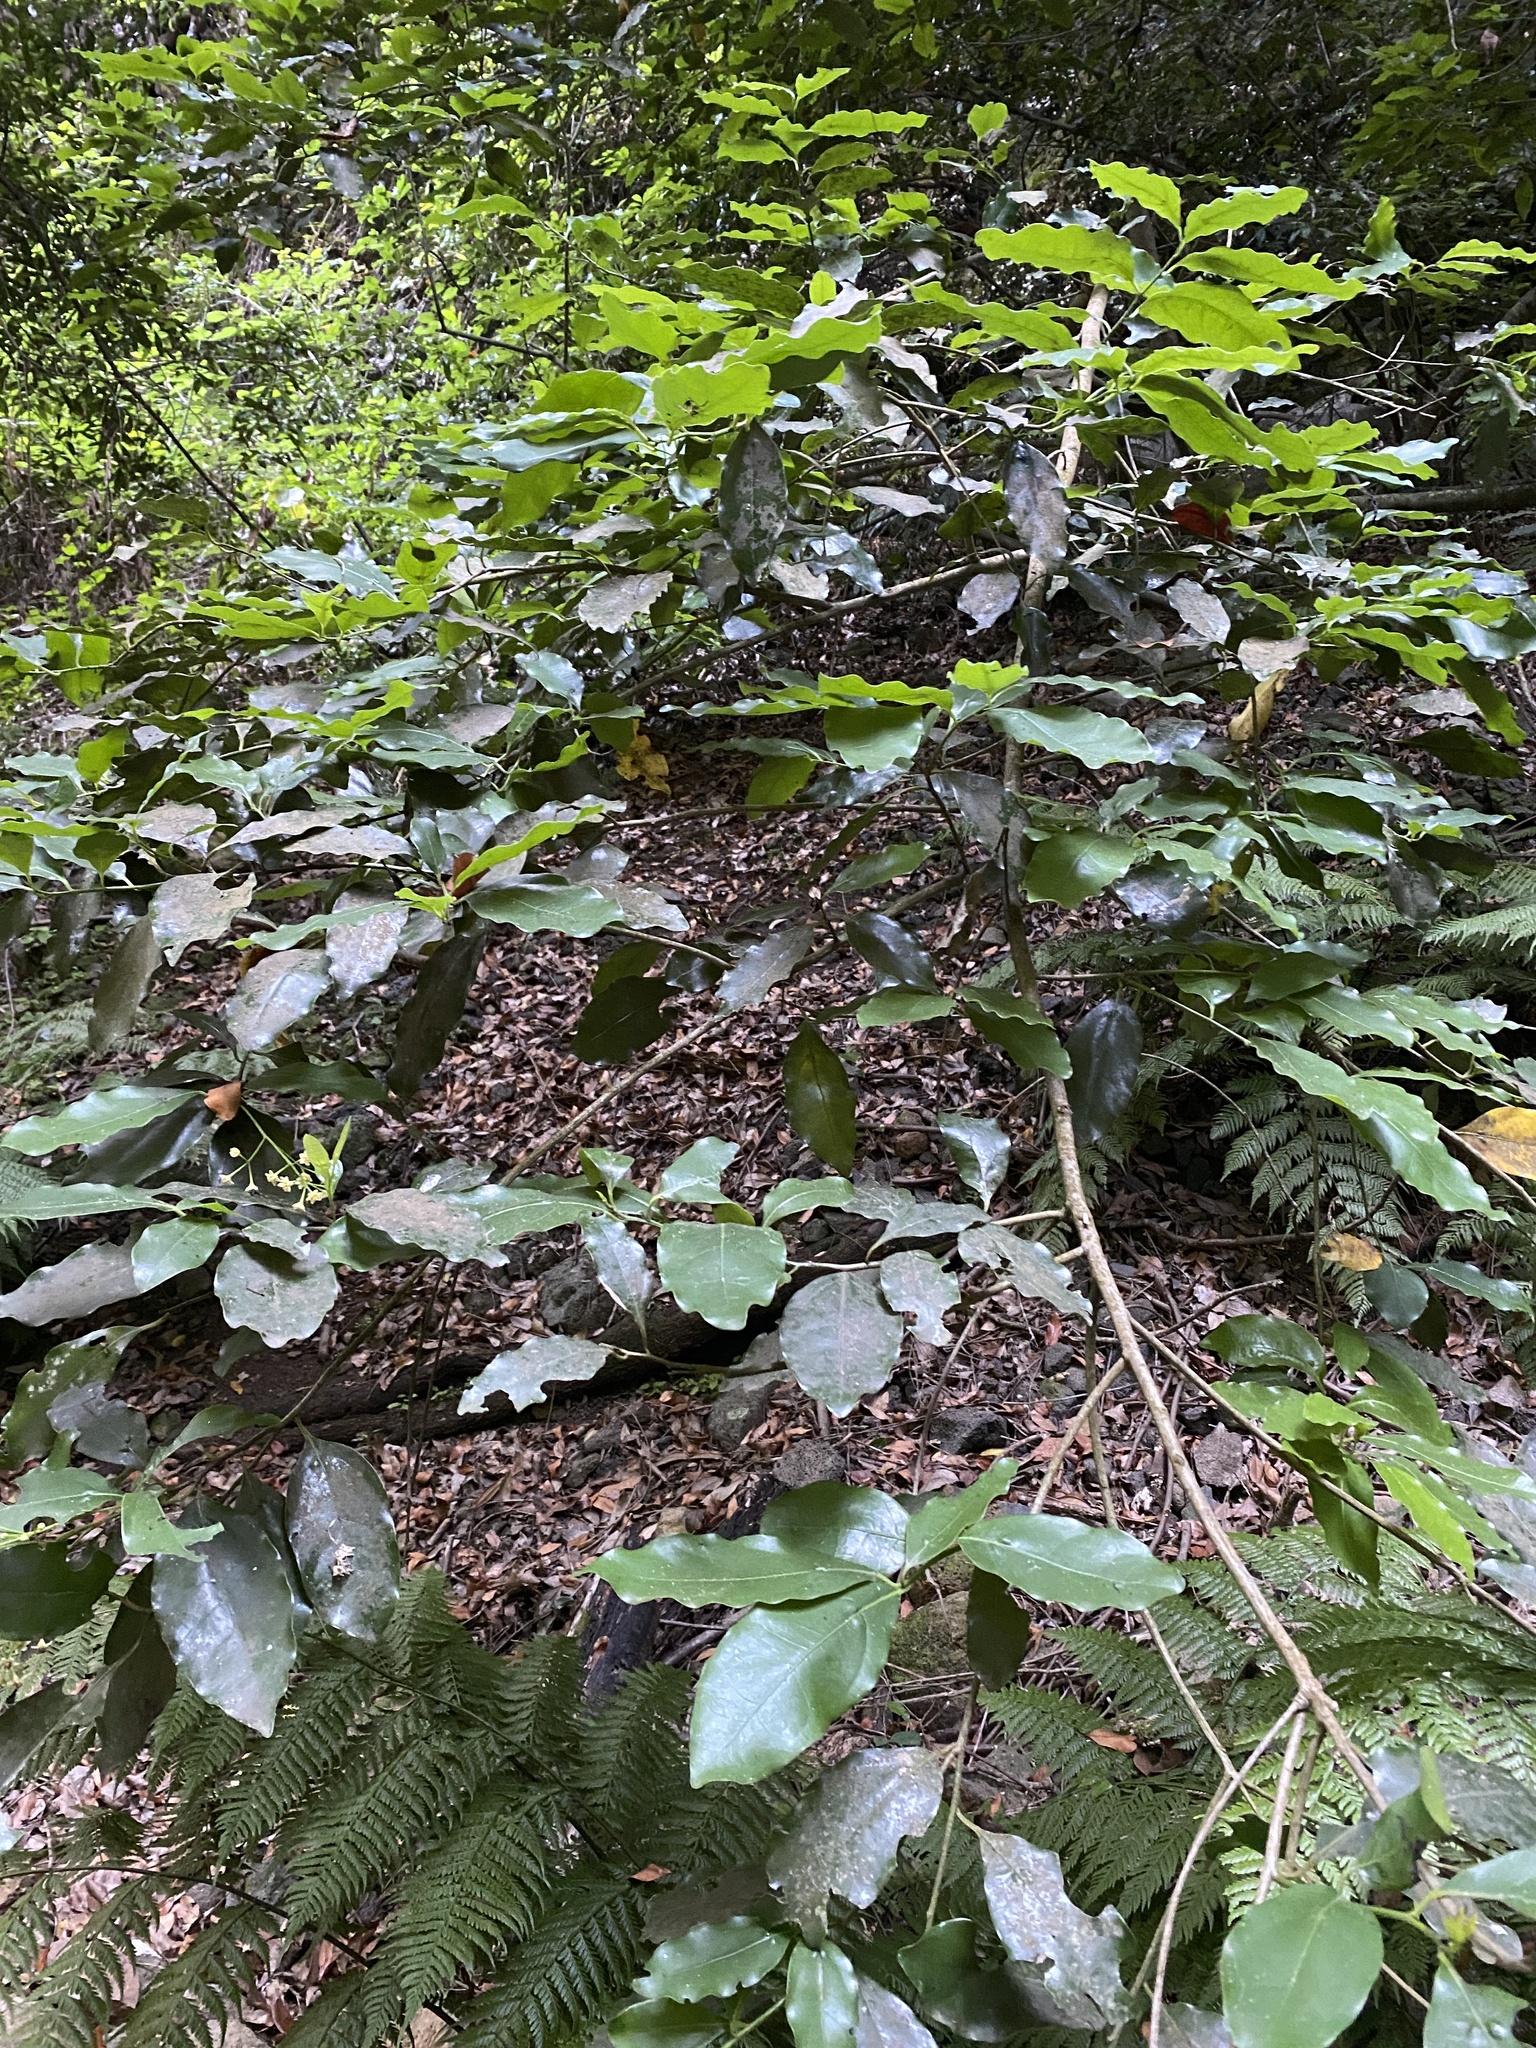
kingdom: Plantae
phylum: Tracheophyta
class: Magnoliopsida
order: Laurales
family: Lauraceae
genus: Mespilodaphne
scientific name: Mespilodaphne foetens
